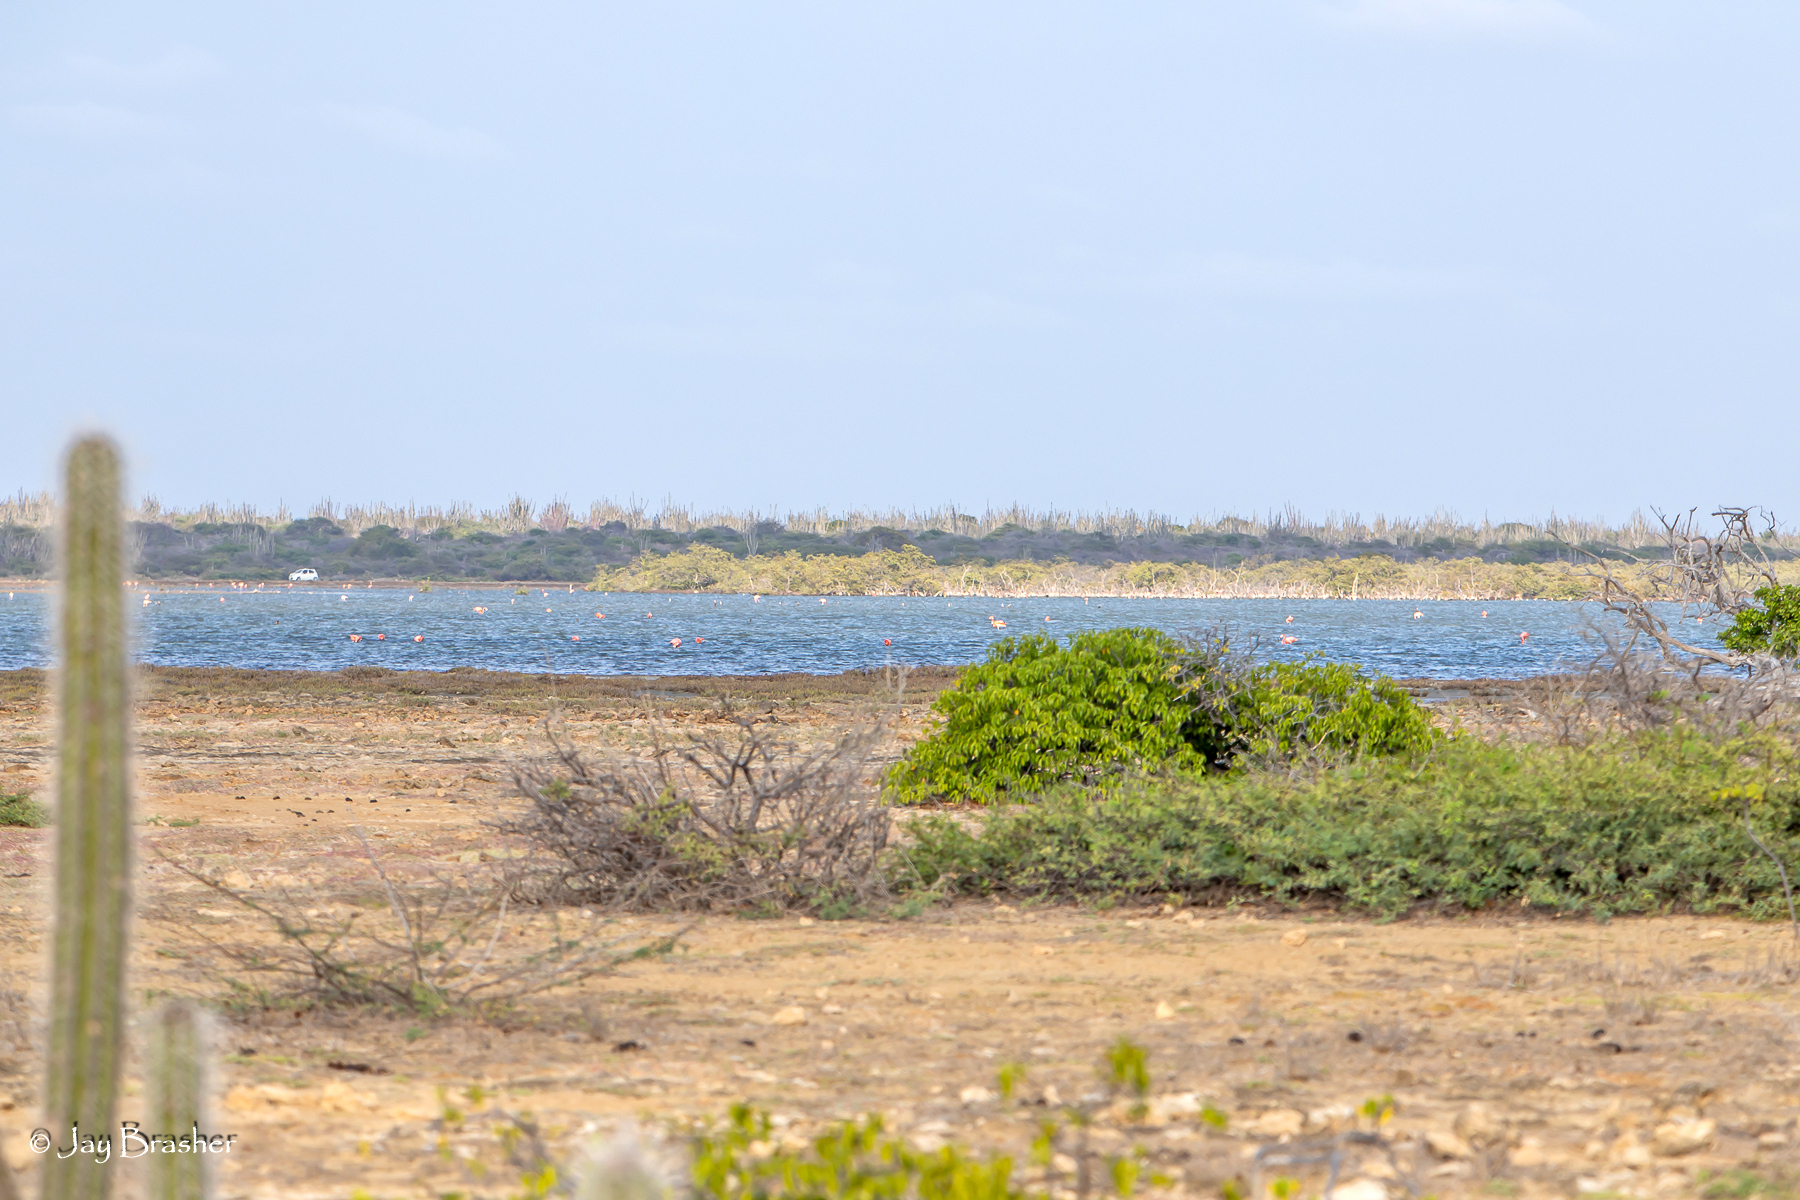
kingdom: Animalia
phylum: Chordata
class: Aves
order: Phoenicopteriformes
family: Phoenicopteridae
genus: Phoenicopterus
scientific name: Phoenicopterus ruber
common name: American flamingo
